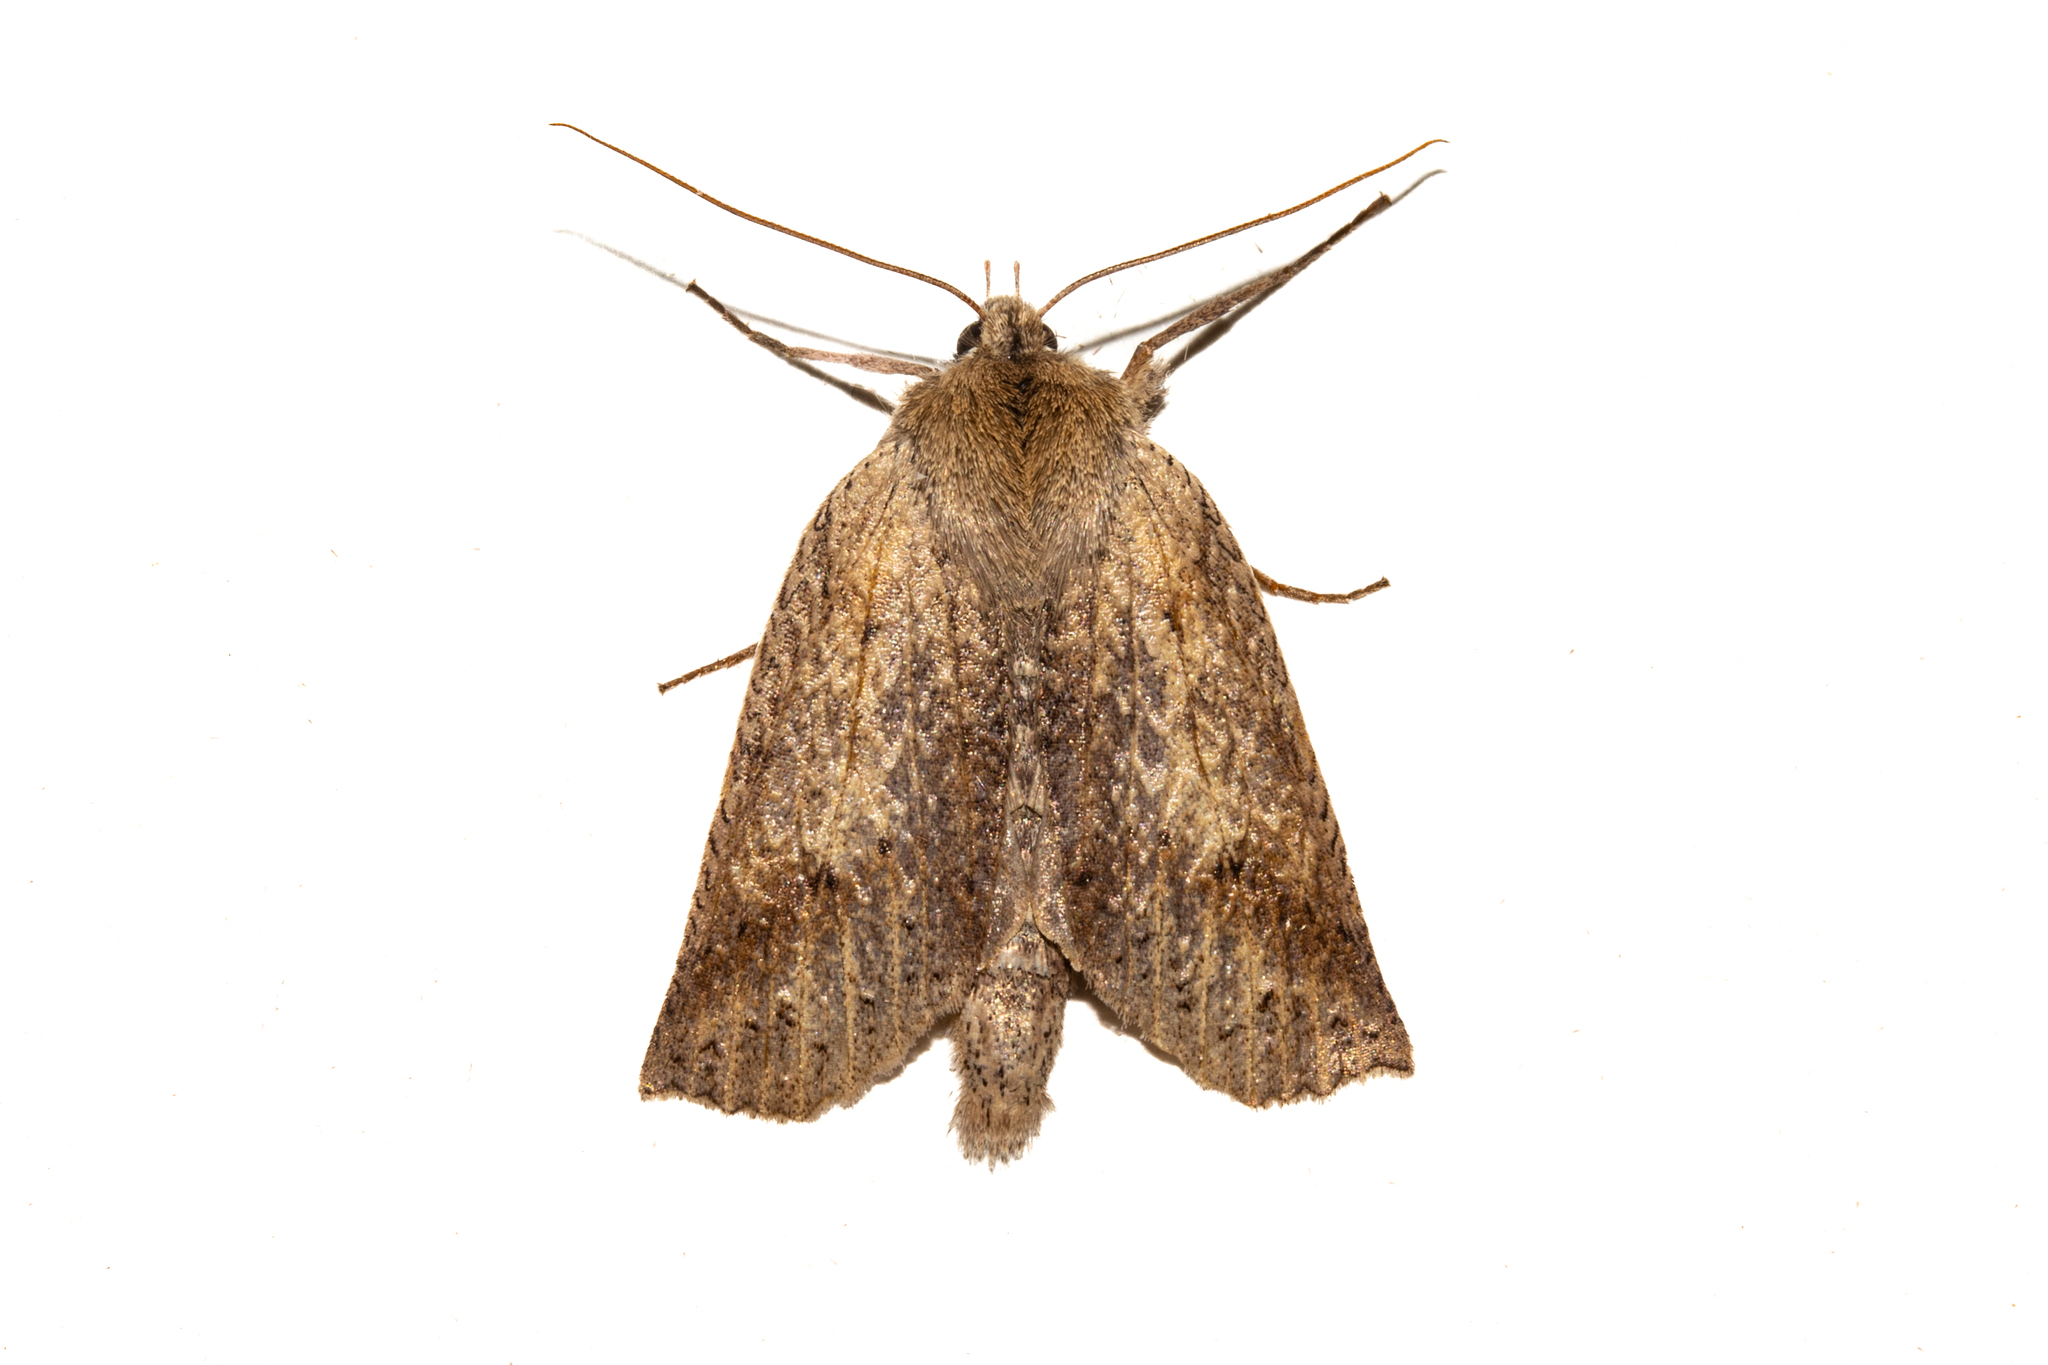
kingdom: Animalia
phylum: Arthropoda
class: Insecta
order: Lepidoptera
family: Geometridae
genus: Declana
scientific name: Declana leptomera
